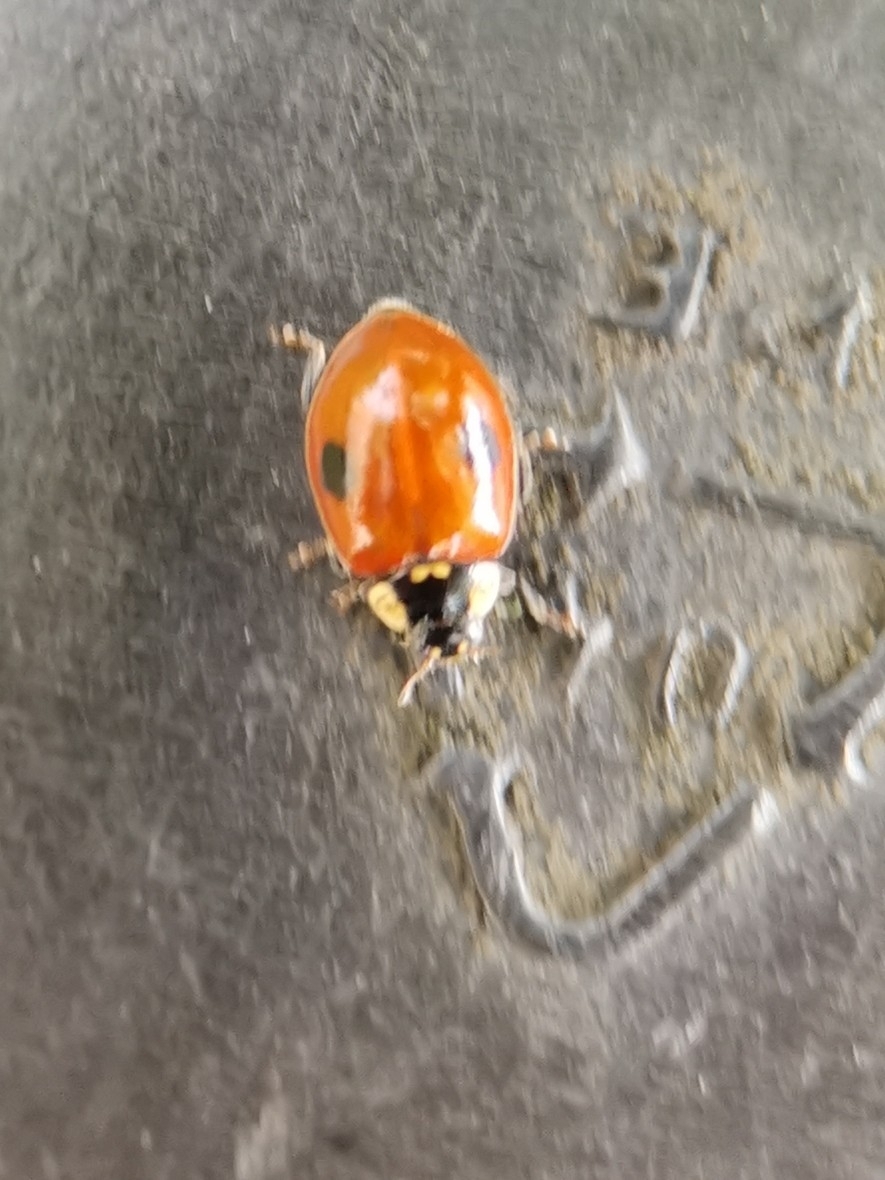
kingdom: Animalia
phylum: Arthropoda
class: Insecta
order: Coleoptera
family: Coccinellidae
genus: Adalia
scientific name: Adalia bipunctata
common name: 2-spot ladybird
